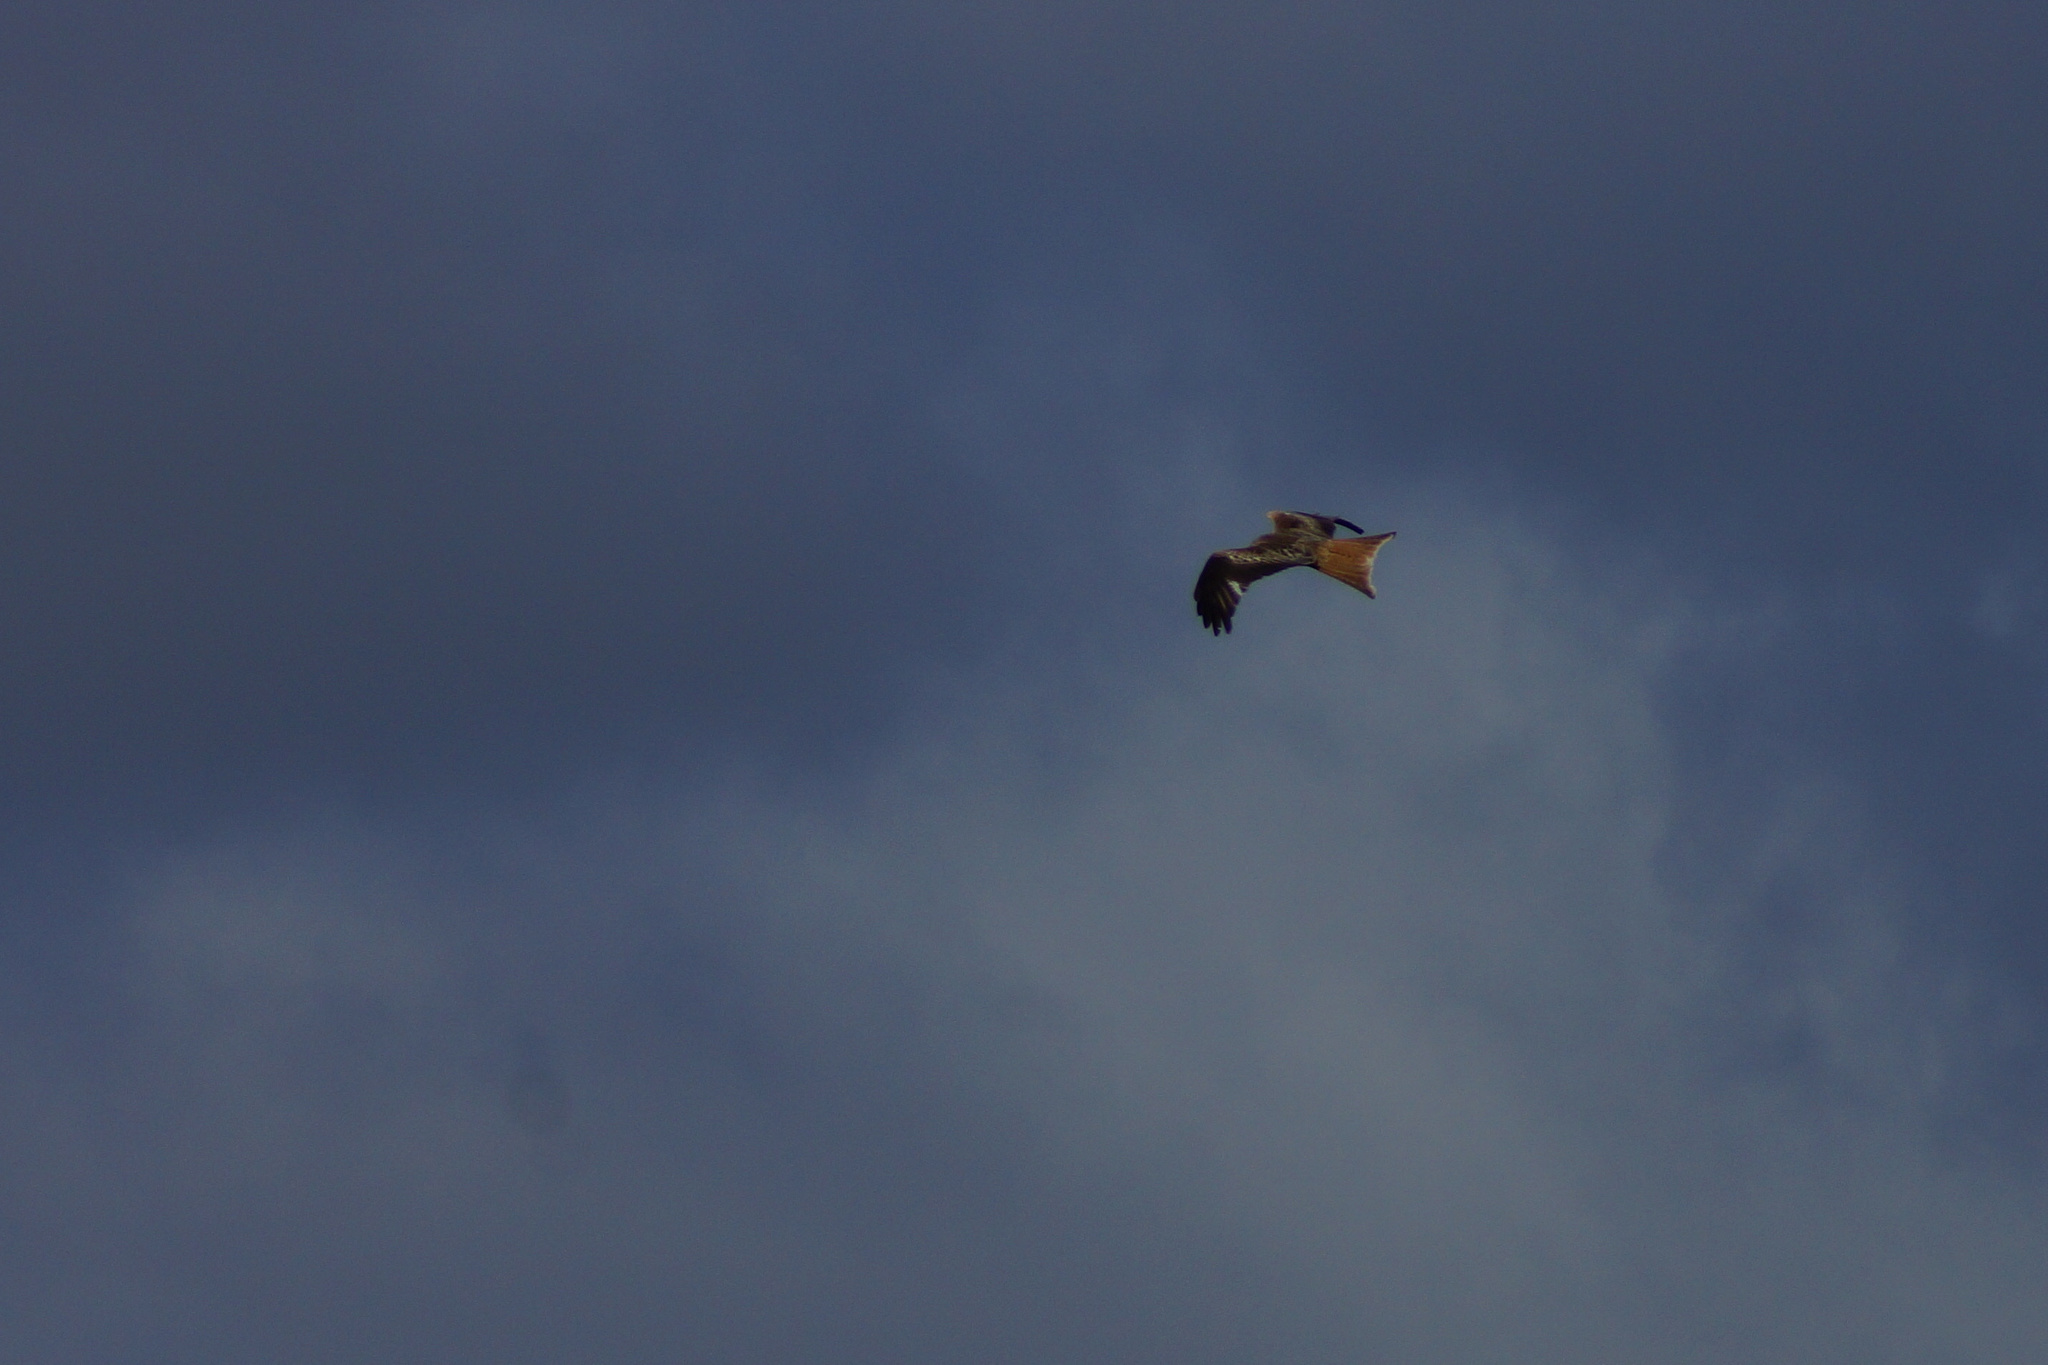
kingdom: Animalia
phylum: Chordata
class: Aves
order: Accipitriformes
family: Accipitridae
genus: Milvus
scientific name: Milvus milvus
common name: Red kite
